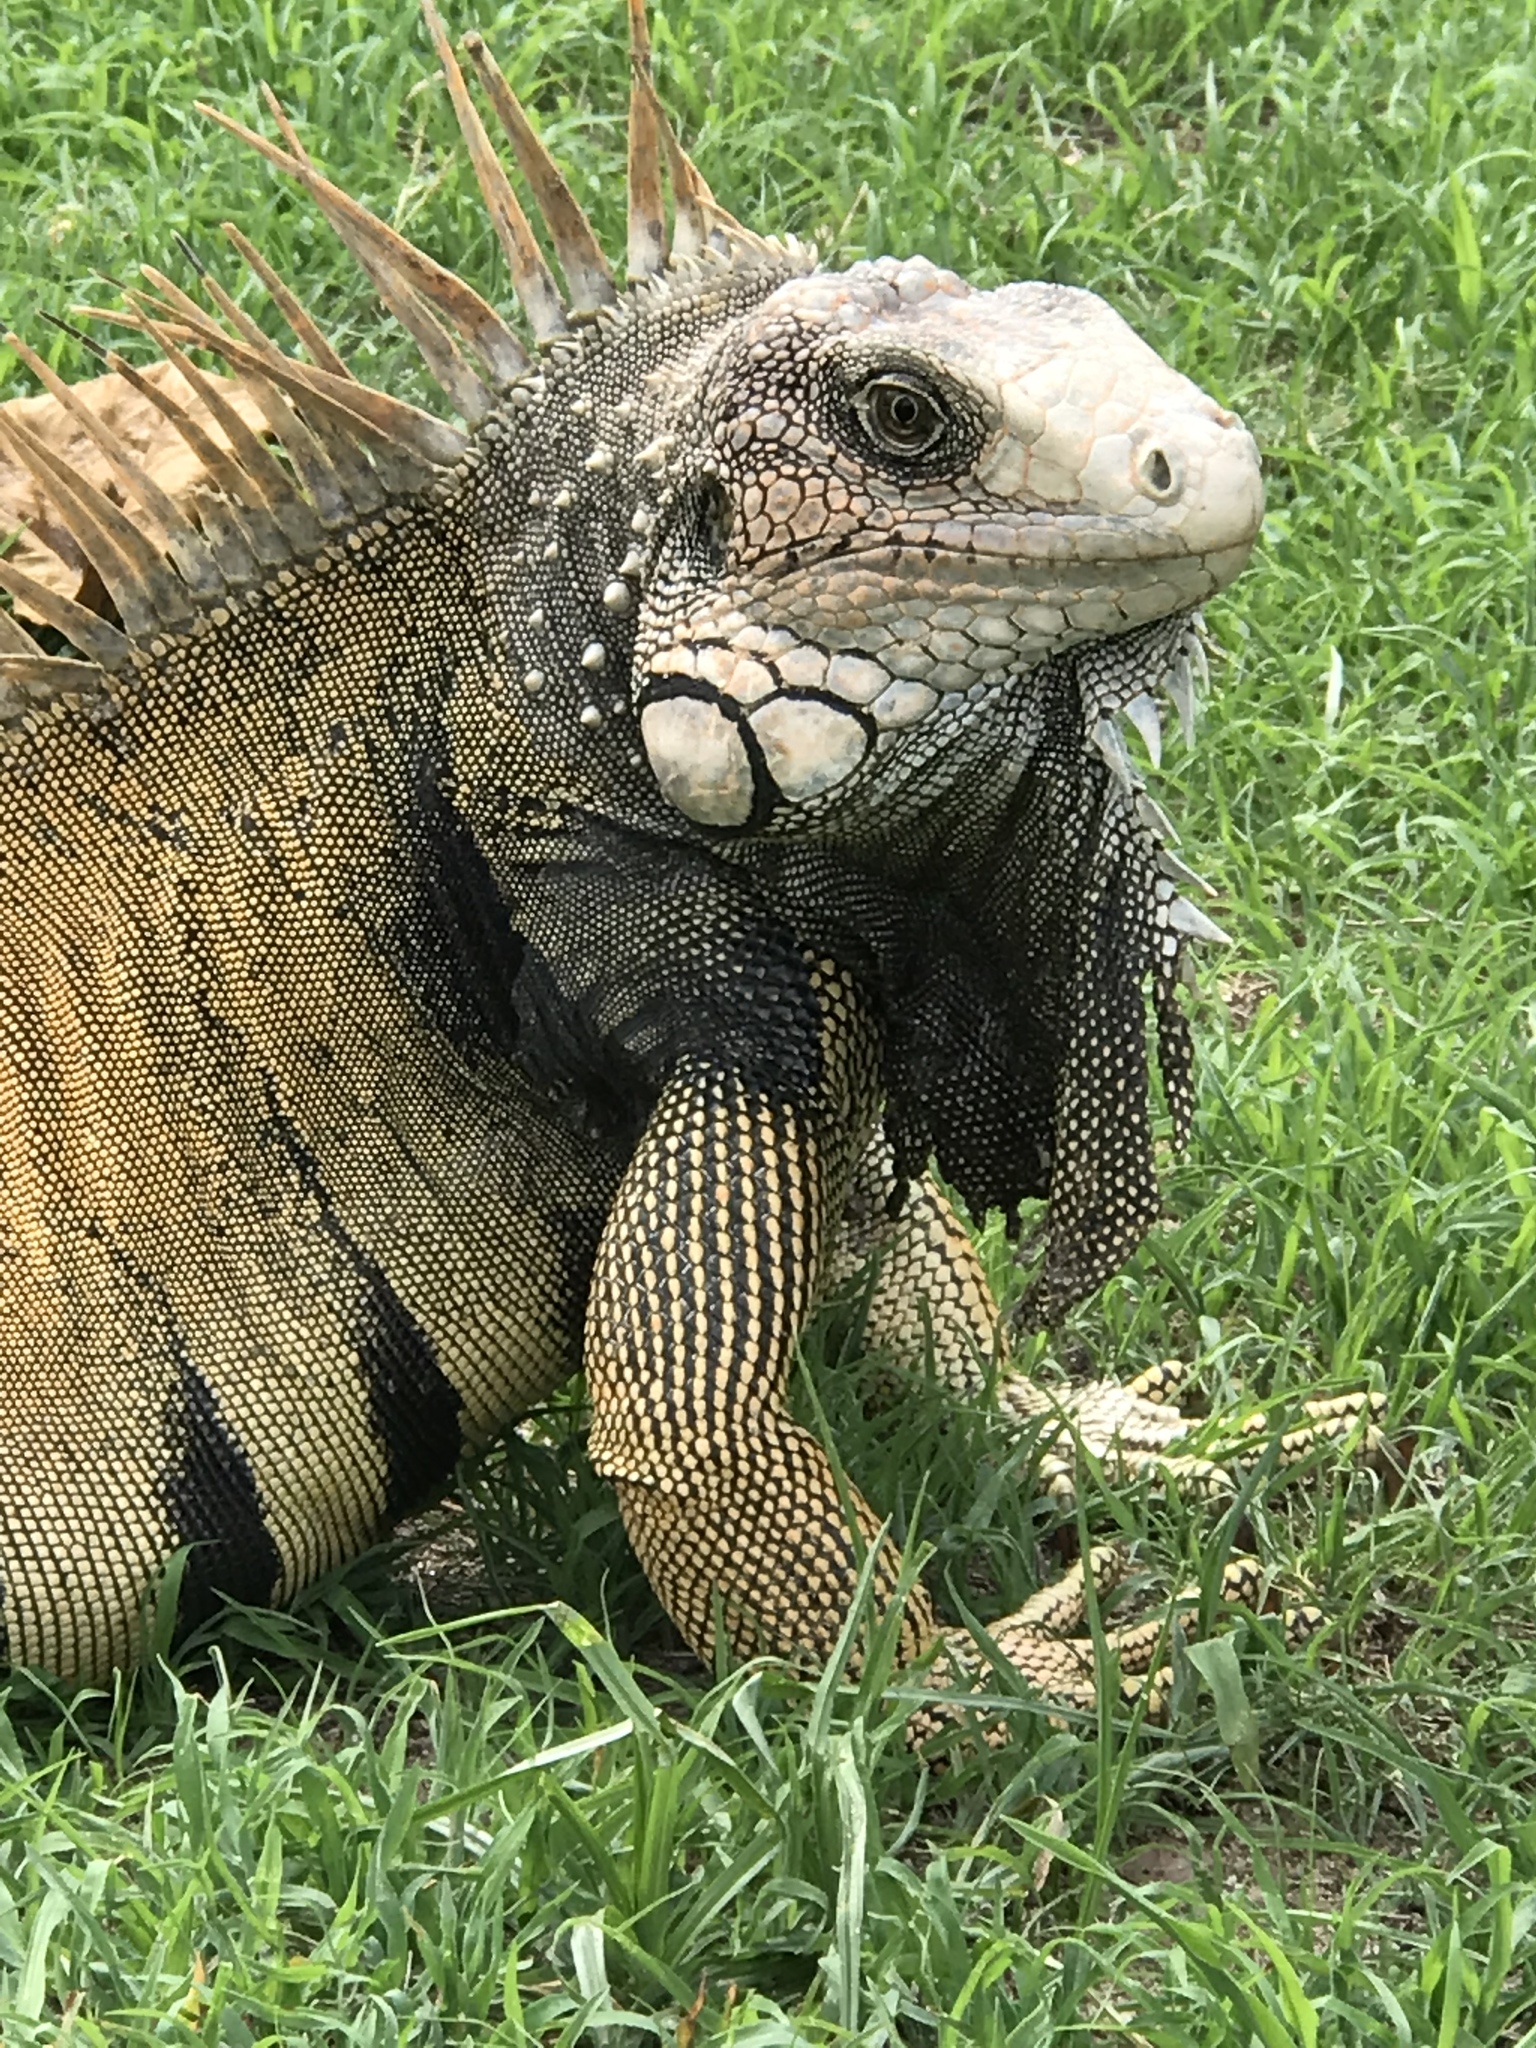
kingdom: Animalia
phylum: Chordata
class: Squamata
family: Iguanidae
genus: Iguana
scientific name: Iguana iguana
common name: Green iguana
